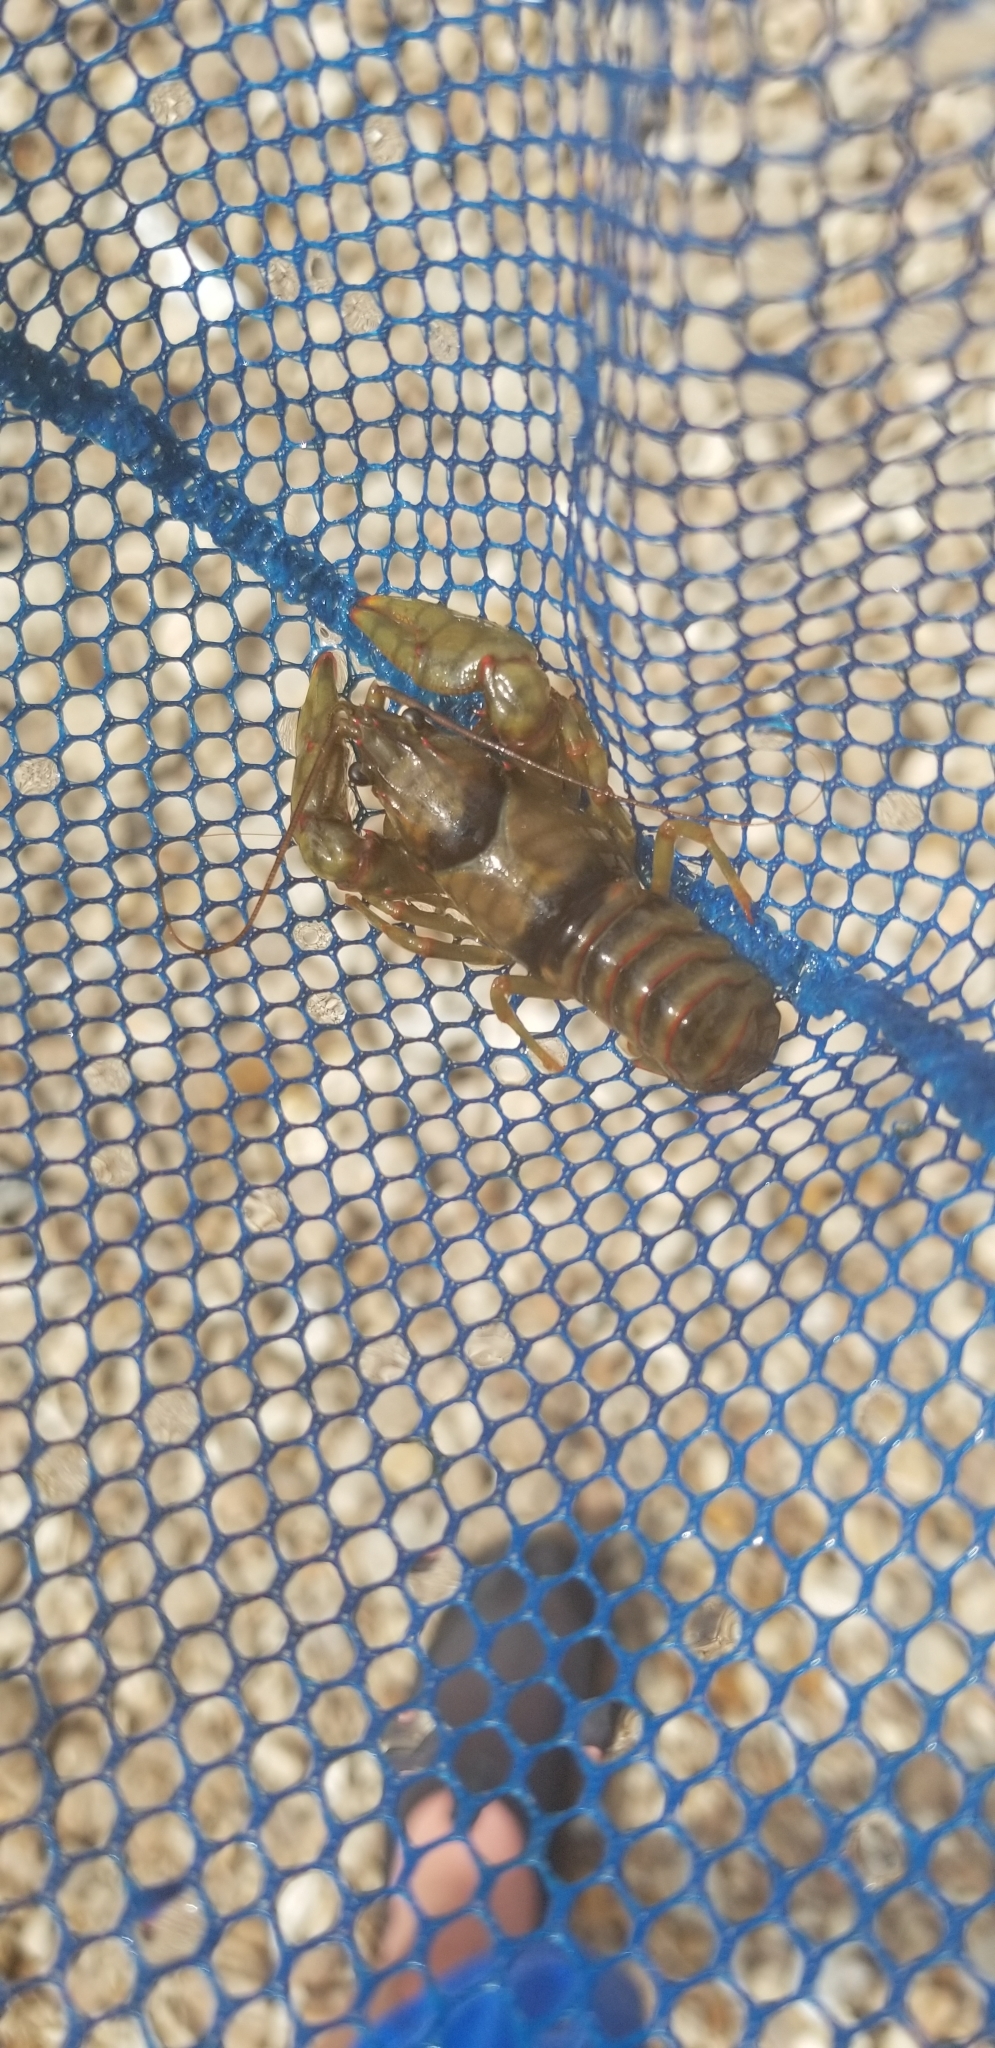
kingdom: Animalia
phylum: Arthropoda
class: Malacostraca
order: Decapoda
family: Cambaridae
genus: Faxonius
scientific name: Faxonius luteus
